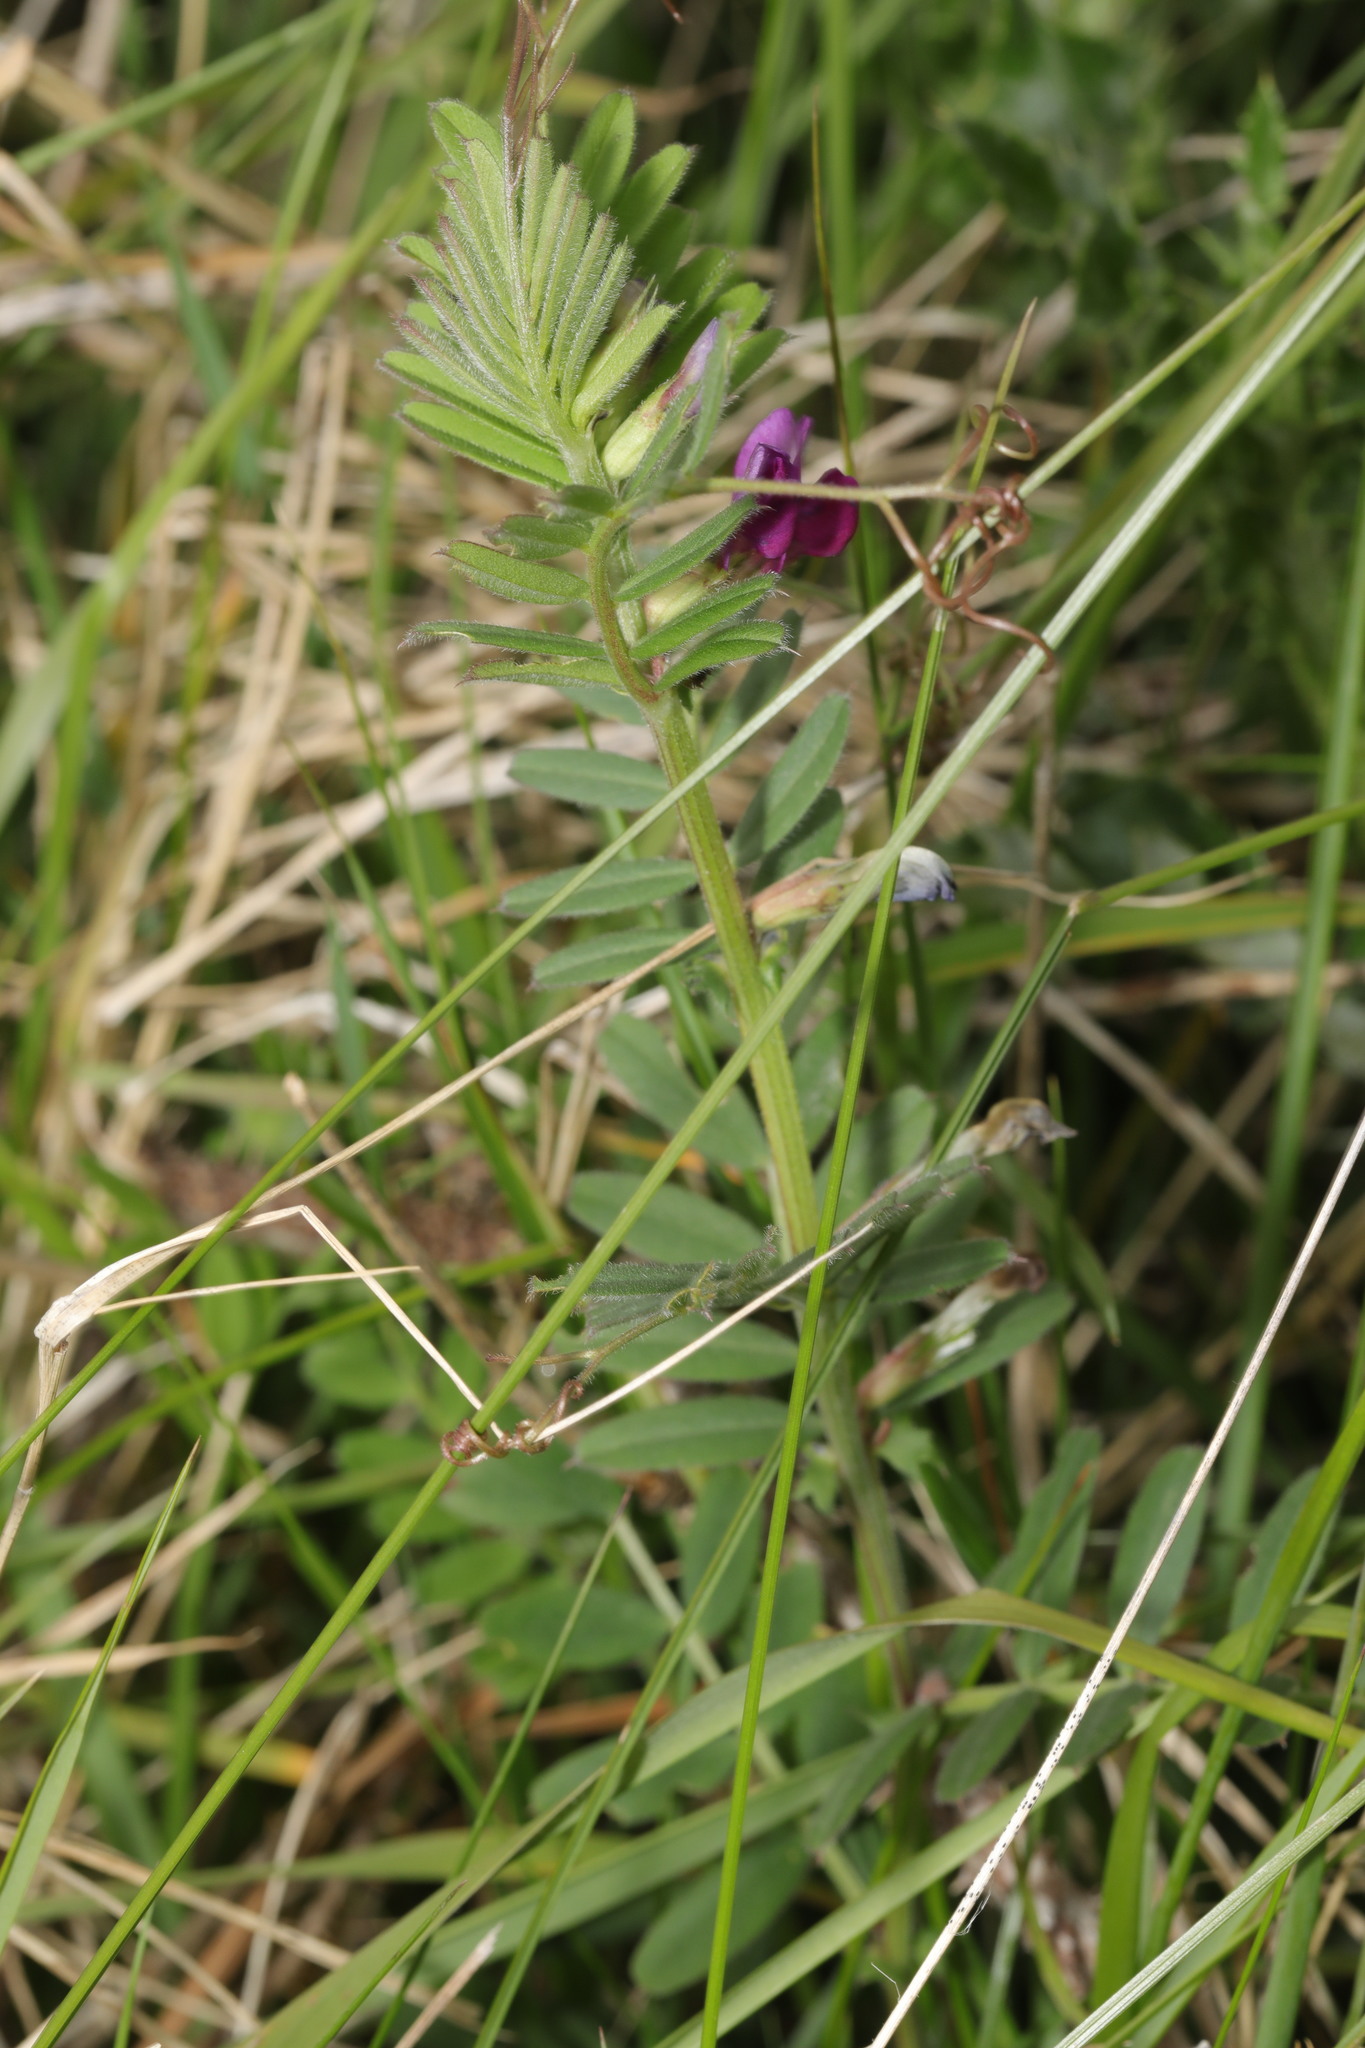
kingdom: Plantae
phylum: Tracheophyta
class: Magnoliopsida
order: Fabales
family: Fabaceae
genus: Vicia
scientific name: Vicia sativa
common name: Garden vetch
